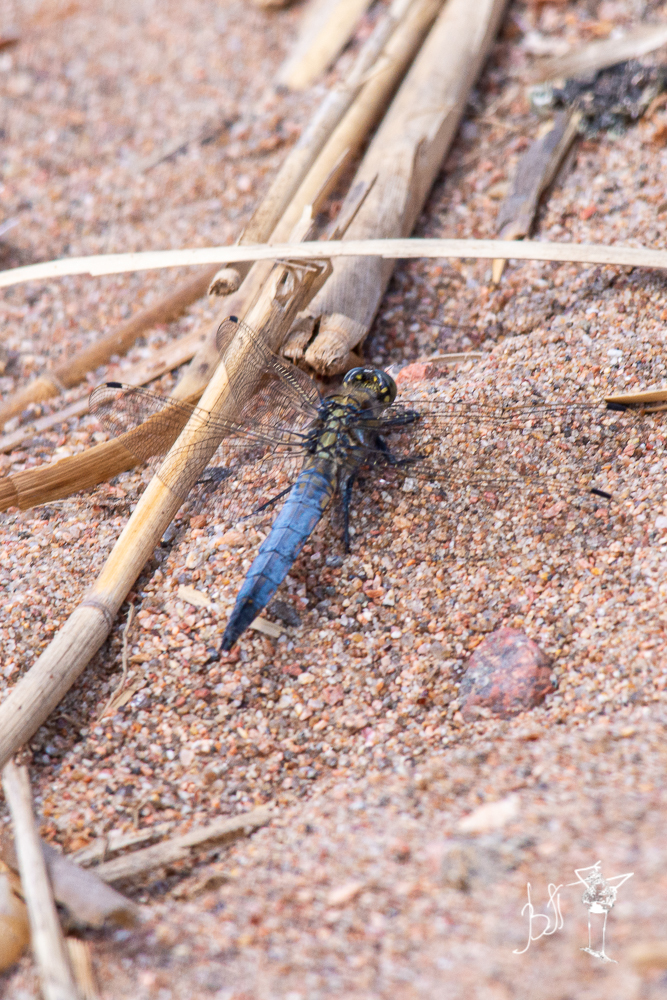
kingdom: Animalia
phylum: Arthropoda
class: Insecta
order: Odonata
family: Libellulidae
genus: Orthetrum
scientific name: Orthetrum cancellatum
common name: Black-tailed skimmer
